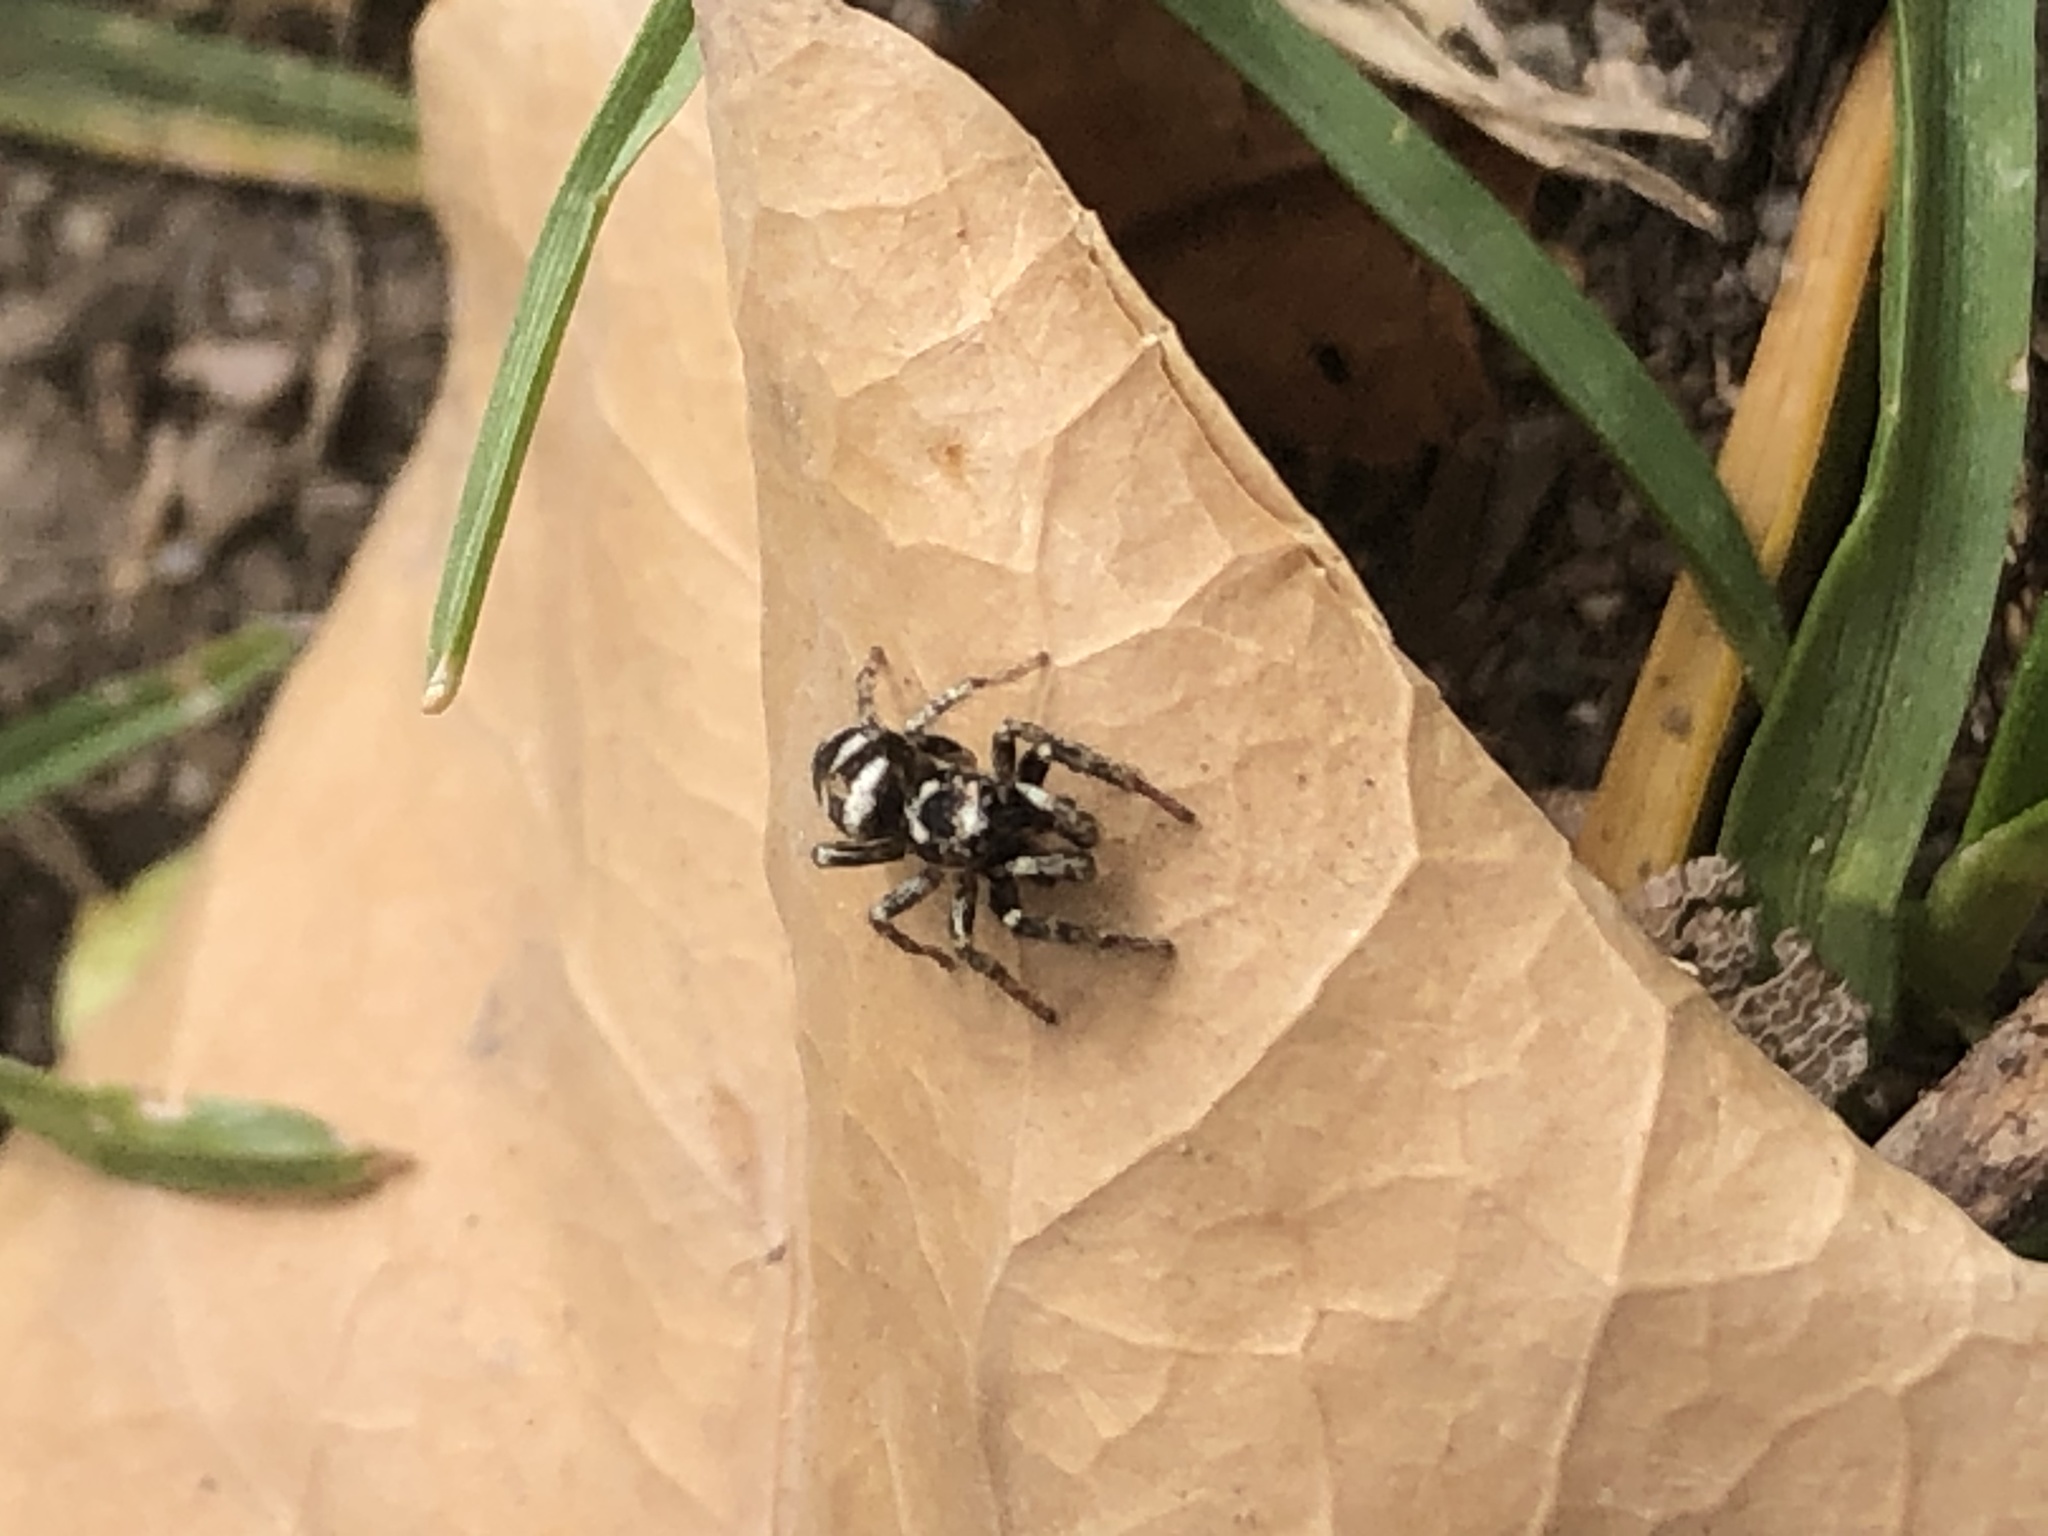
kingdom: Animalia
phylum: Arthropoda
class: Arachnida
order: Araneae
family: Salticidae
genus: Salticus
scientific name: Salticus scenicus
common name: Zebra jumper
